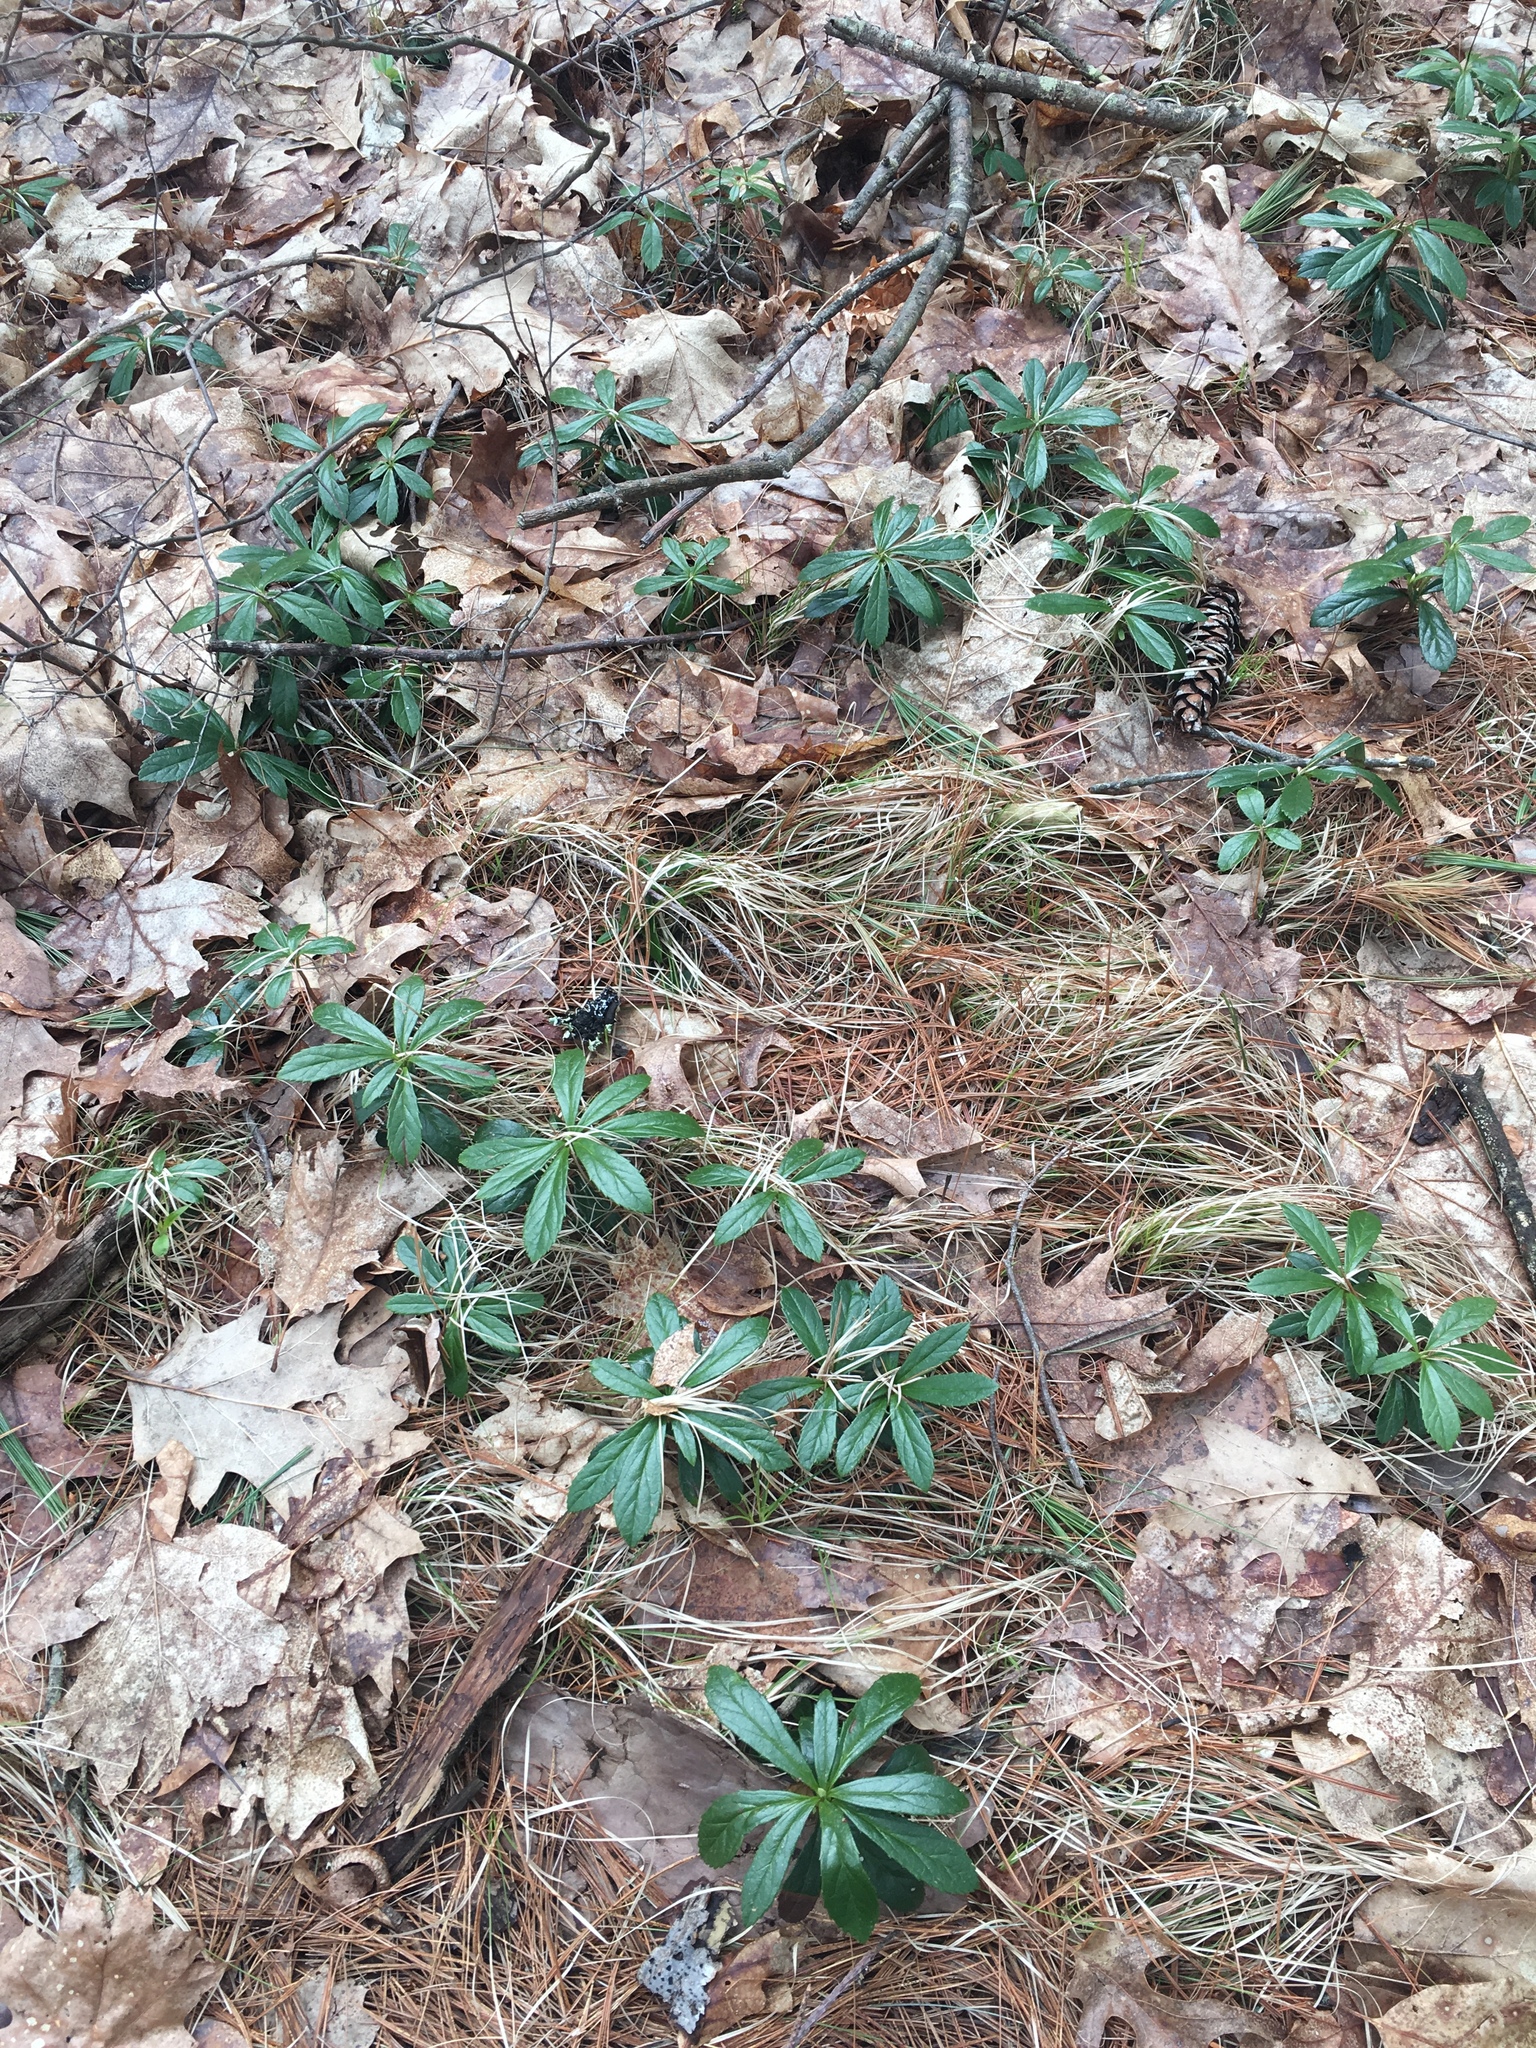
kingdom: Plantae
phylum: Tracheophyta
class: Magnoliopsida
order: Ericales
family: Ericaceae
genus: Chimaphila
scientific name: Chimaphila umbellata
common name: Pipsissewa
